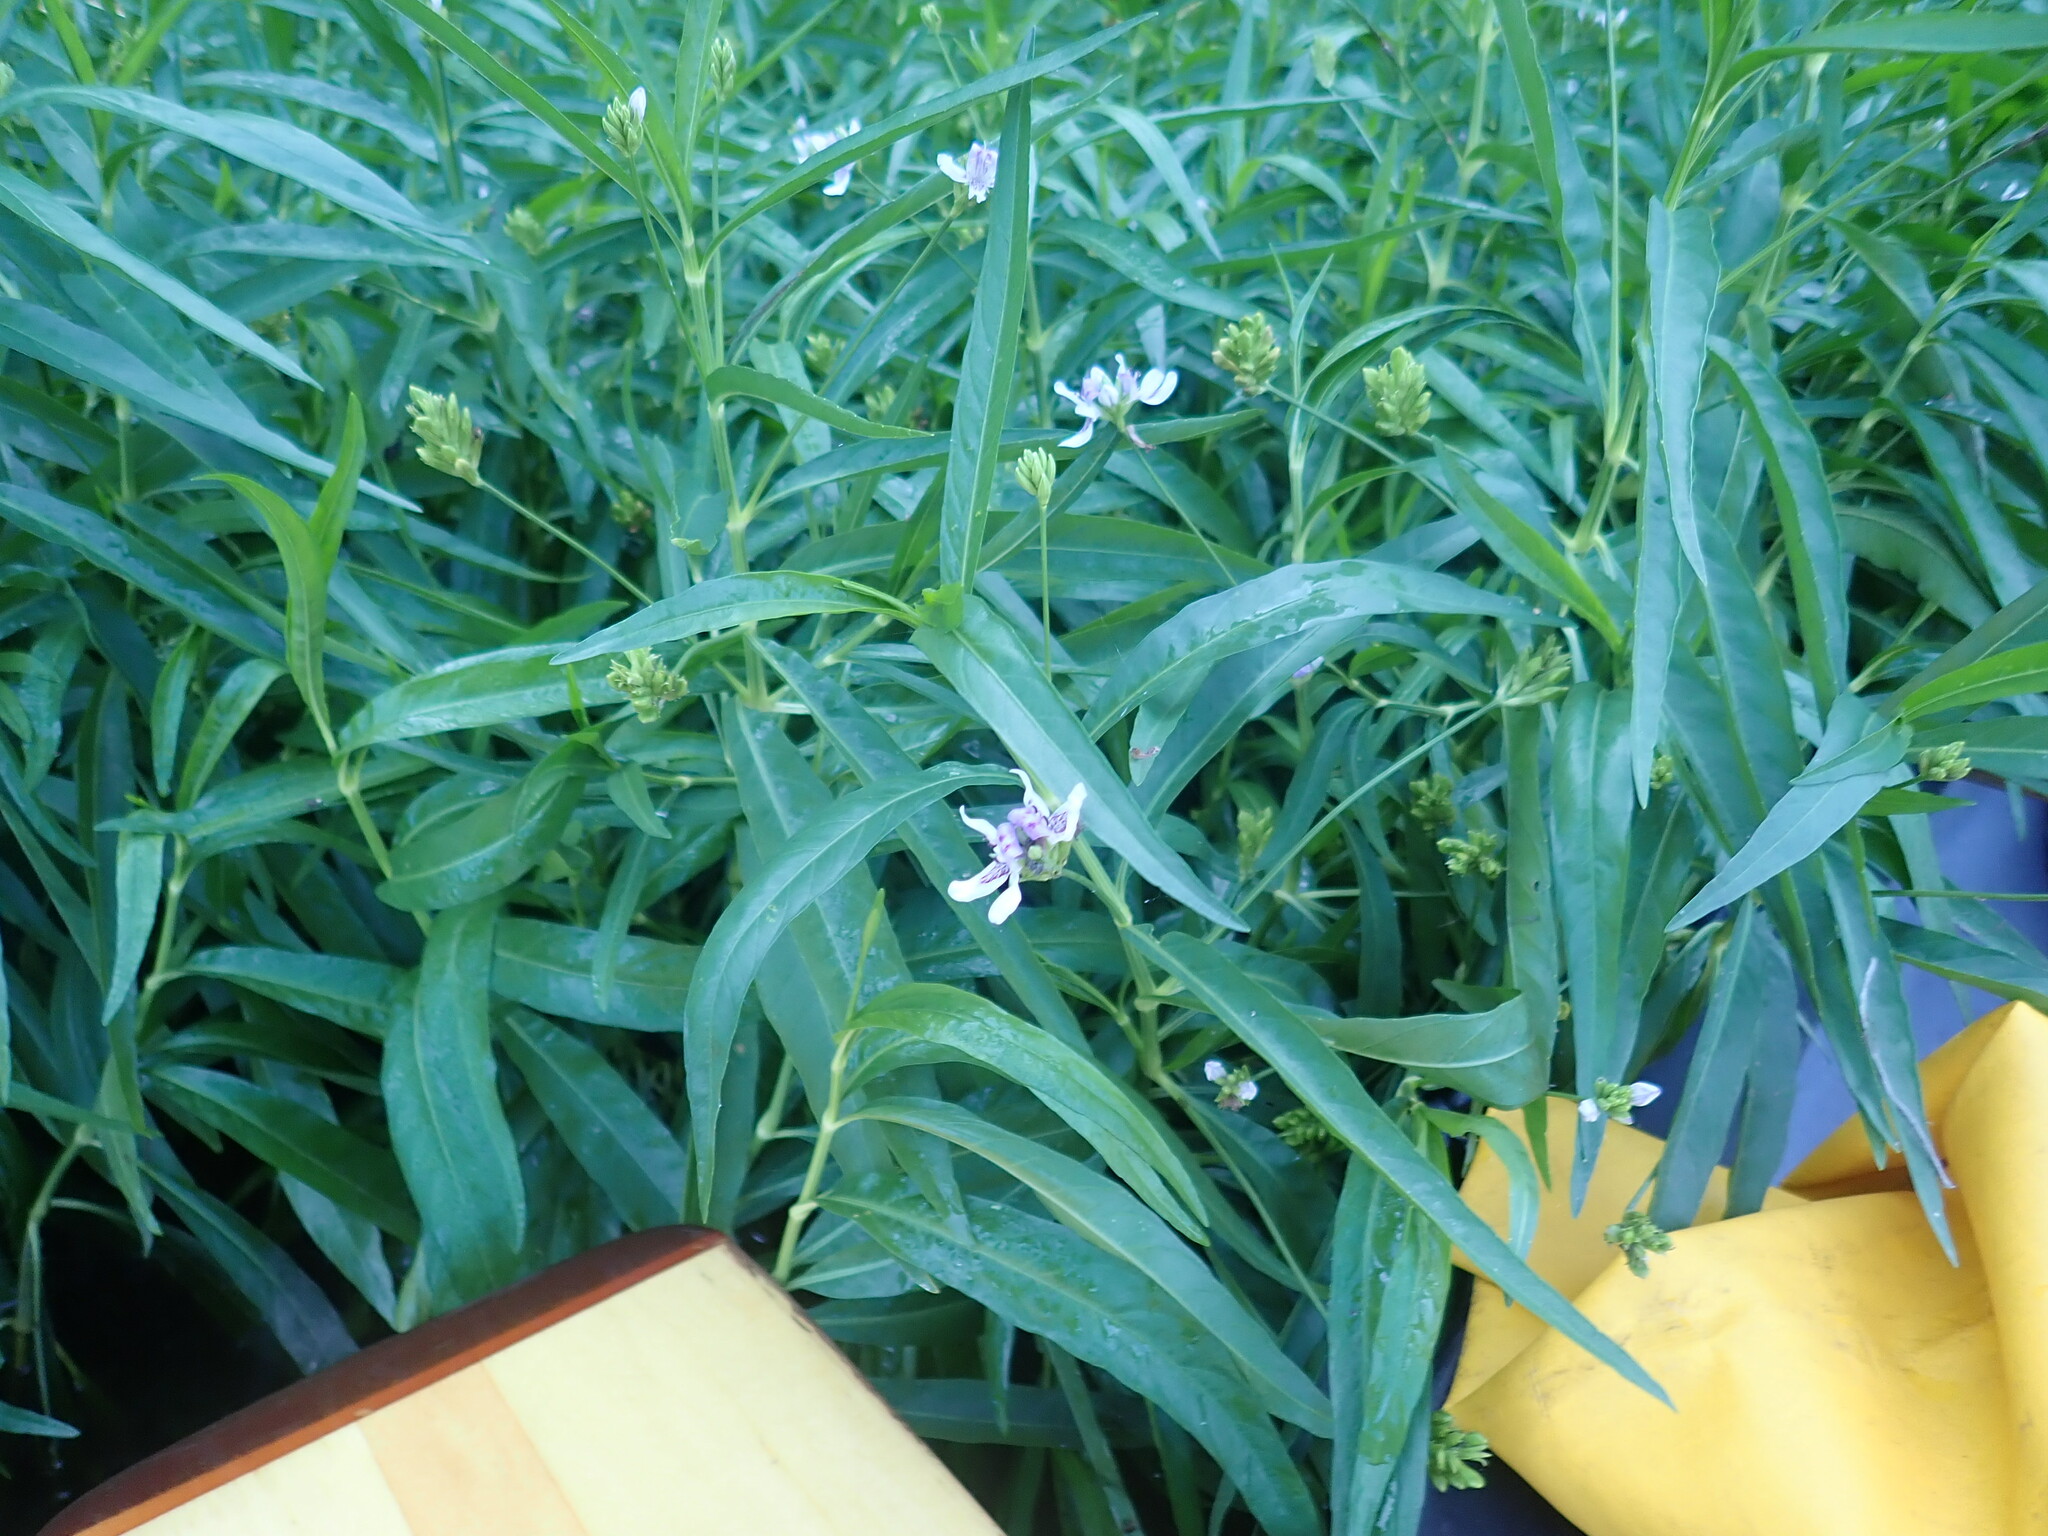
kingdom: Plantae
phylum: Tracheophyta
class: Magnoliopsida
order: Lamiales
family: Acanthaceae
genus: Dianthera
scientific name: Dianthera americana
